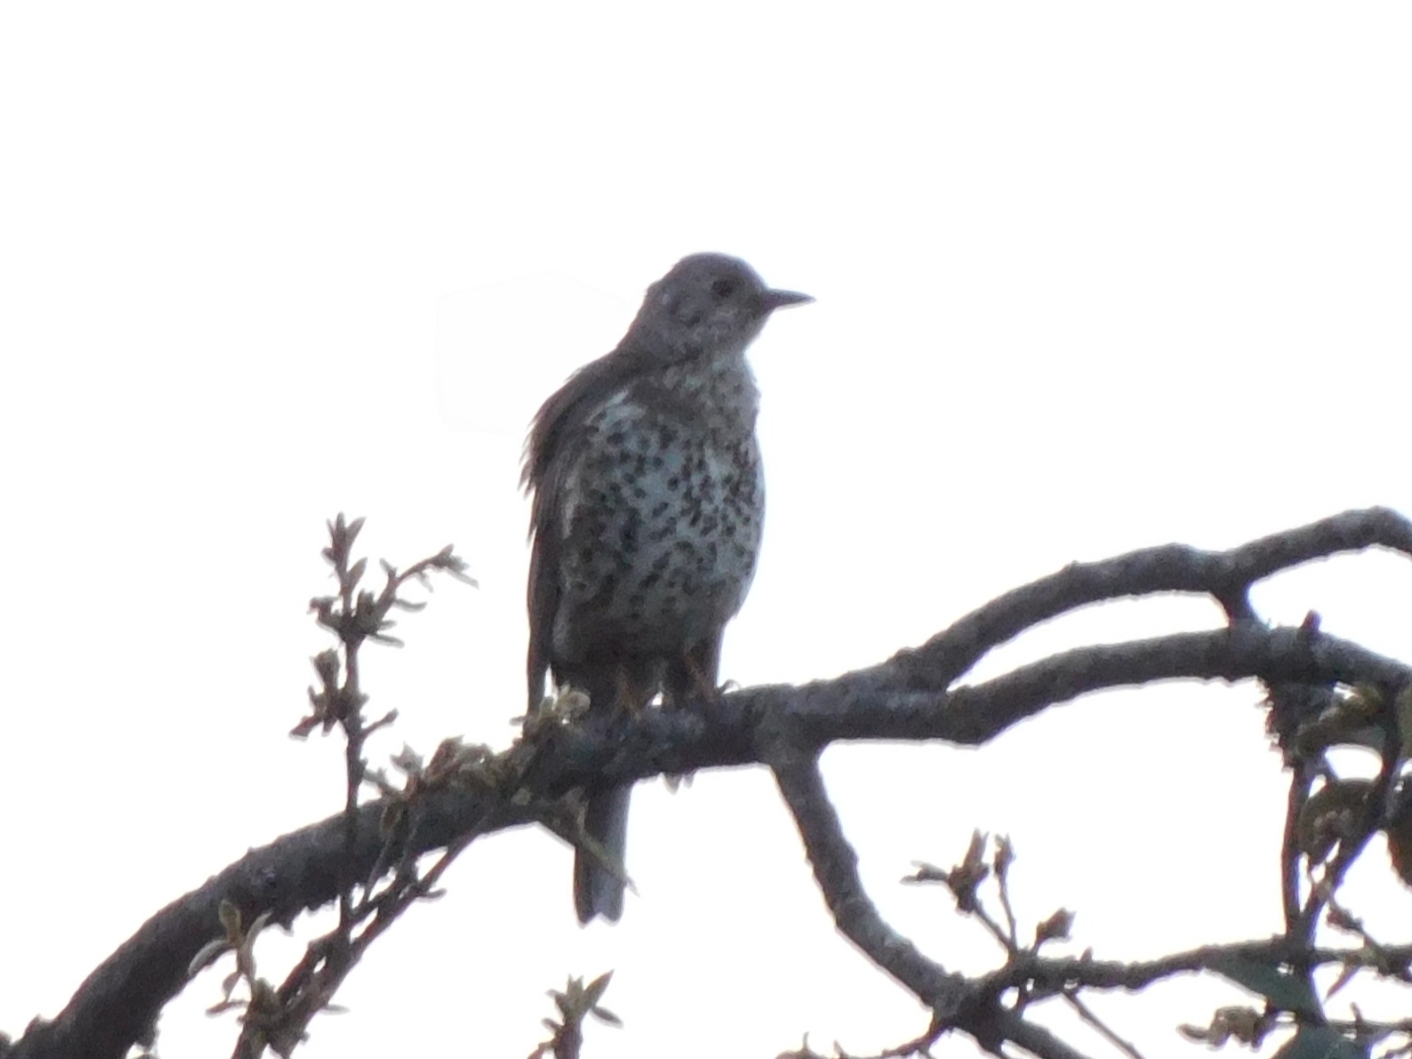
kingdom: Animalia
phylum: Chordata
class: Aves
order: Passeriformes
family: Turdidae
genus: Turdus
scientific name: Turdus viscivorus
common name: Mistle thrush
